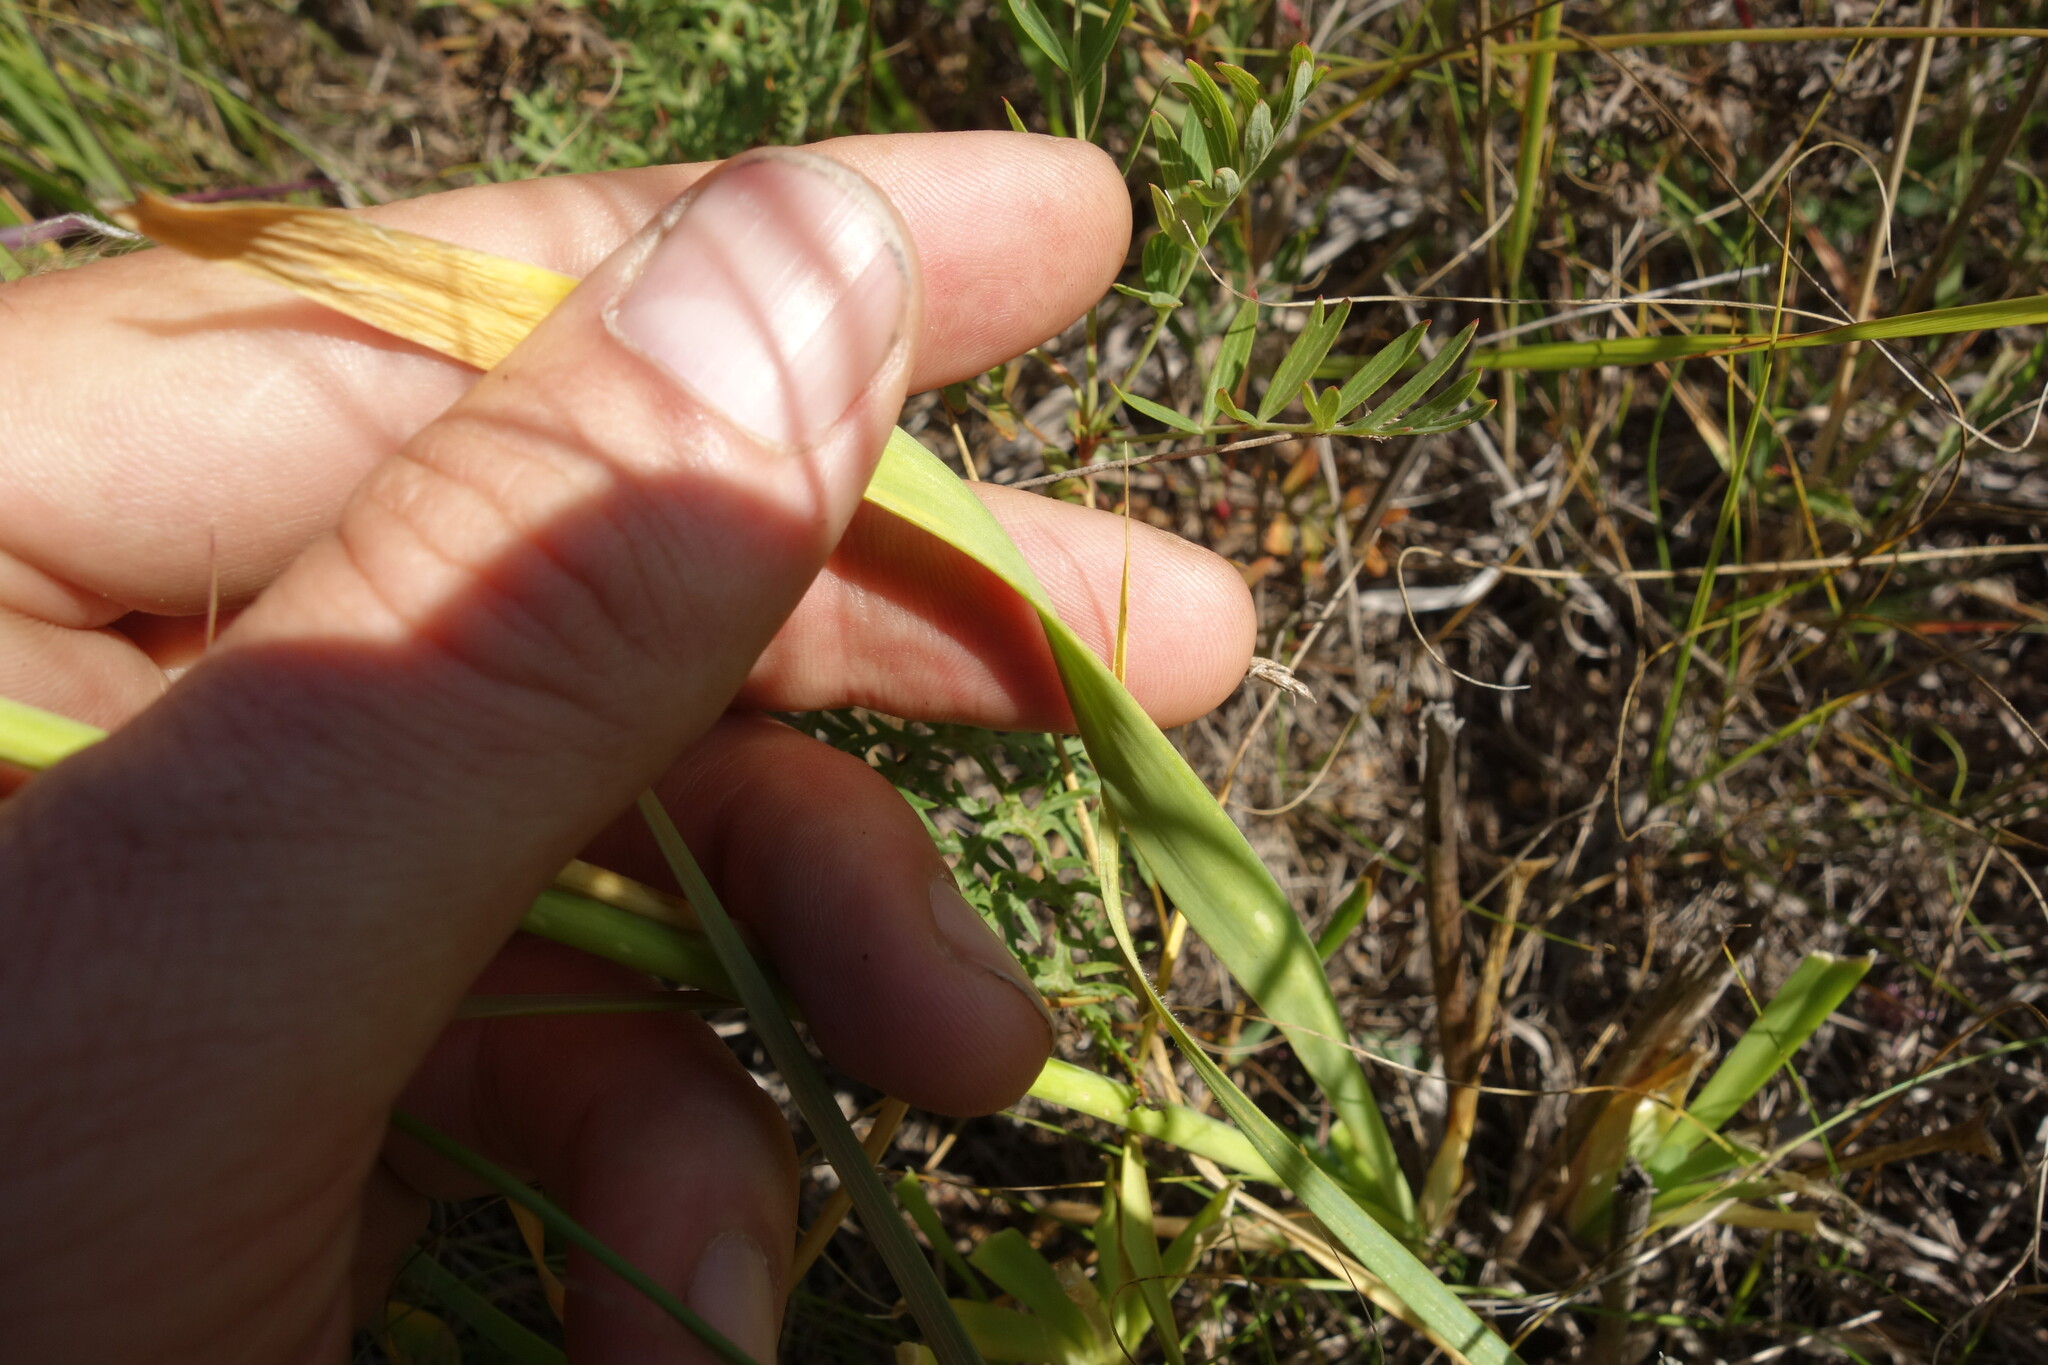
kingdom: Plantae
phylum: Tracheophyta
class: Liliopsida
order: Asparagales
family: Amaryllidaceae
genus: Allium
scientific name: Allium senescens
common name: German garlic
